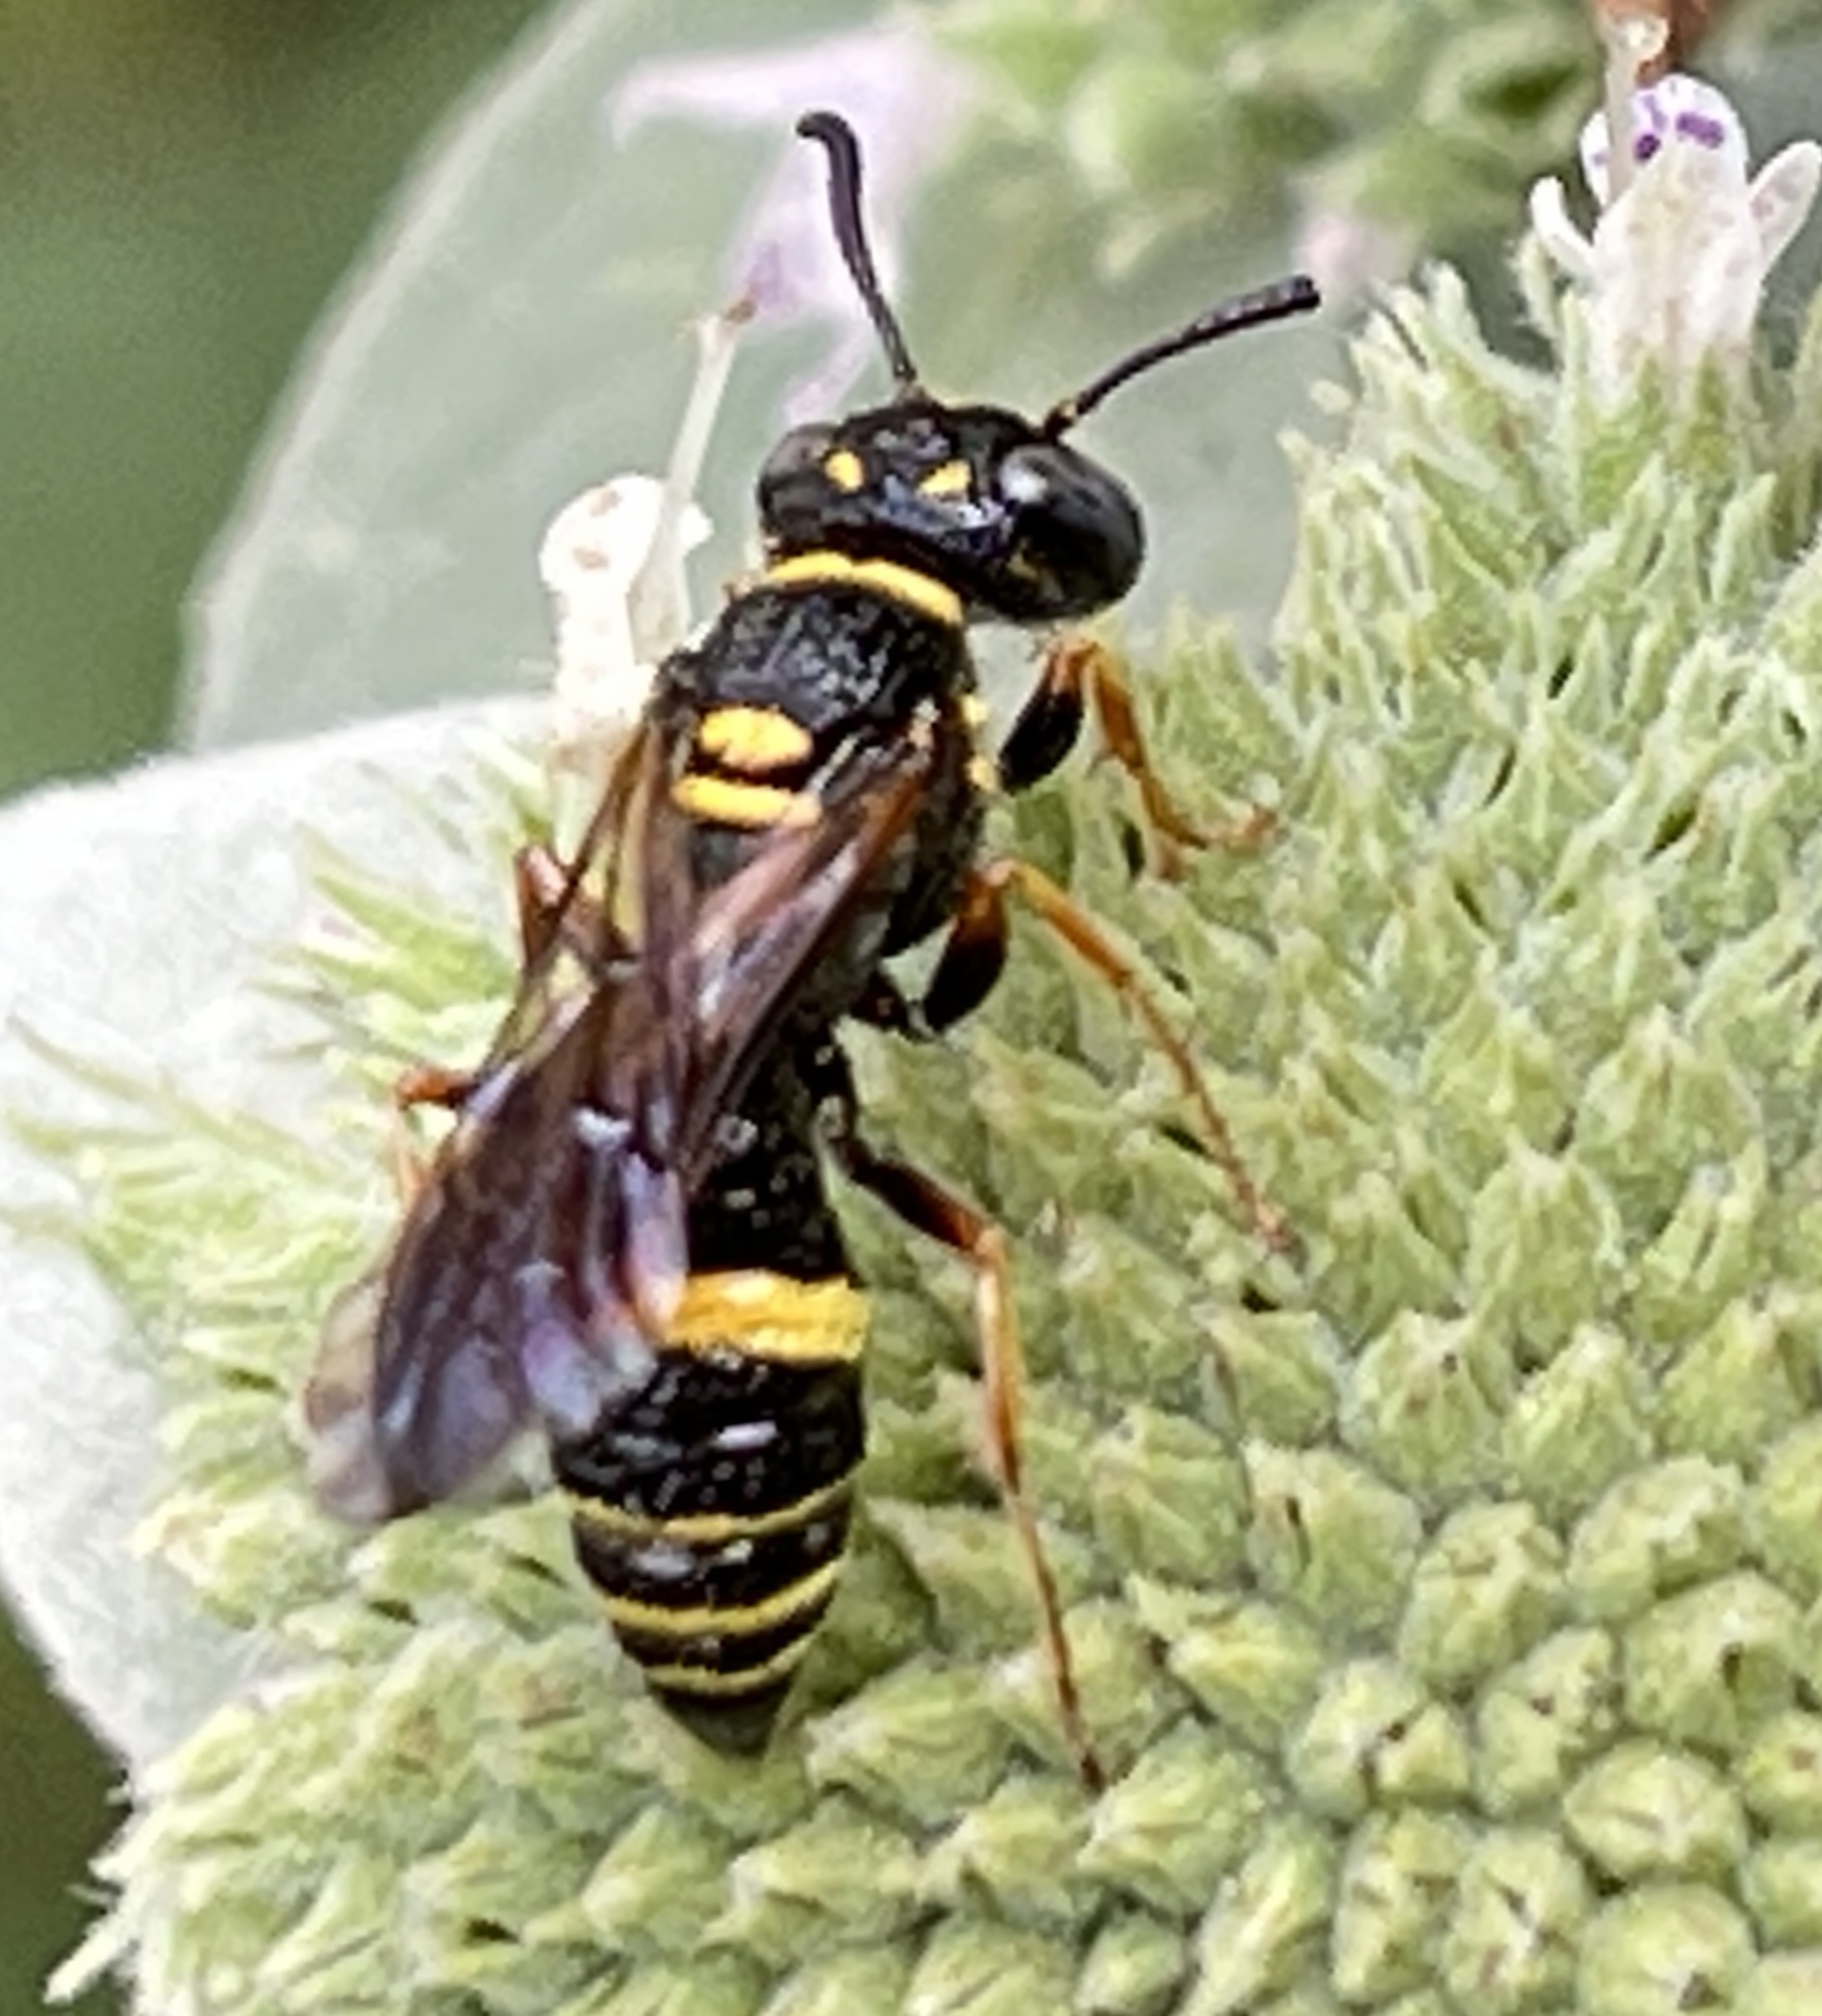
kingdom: Animalia
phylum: Arthropoda
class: Insecta
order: Hymenoptera
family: Crabronidae
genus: Philanthus
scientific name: Philanthus gibbosus
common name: Humped beewolf
